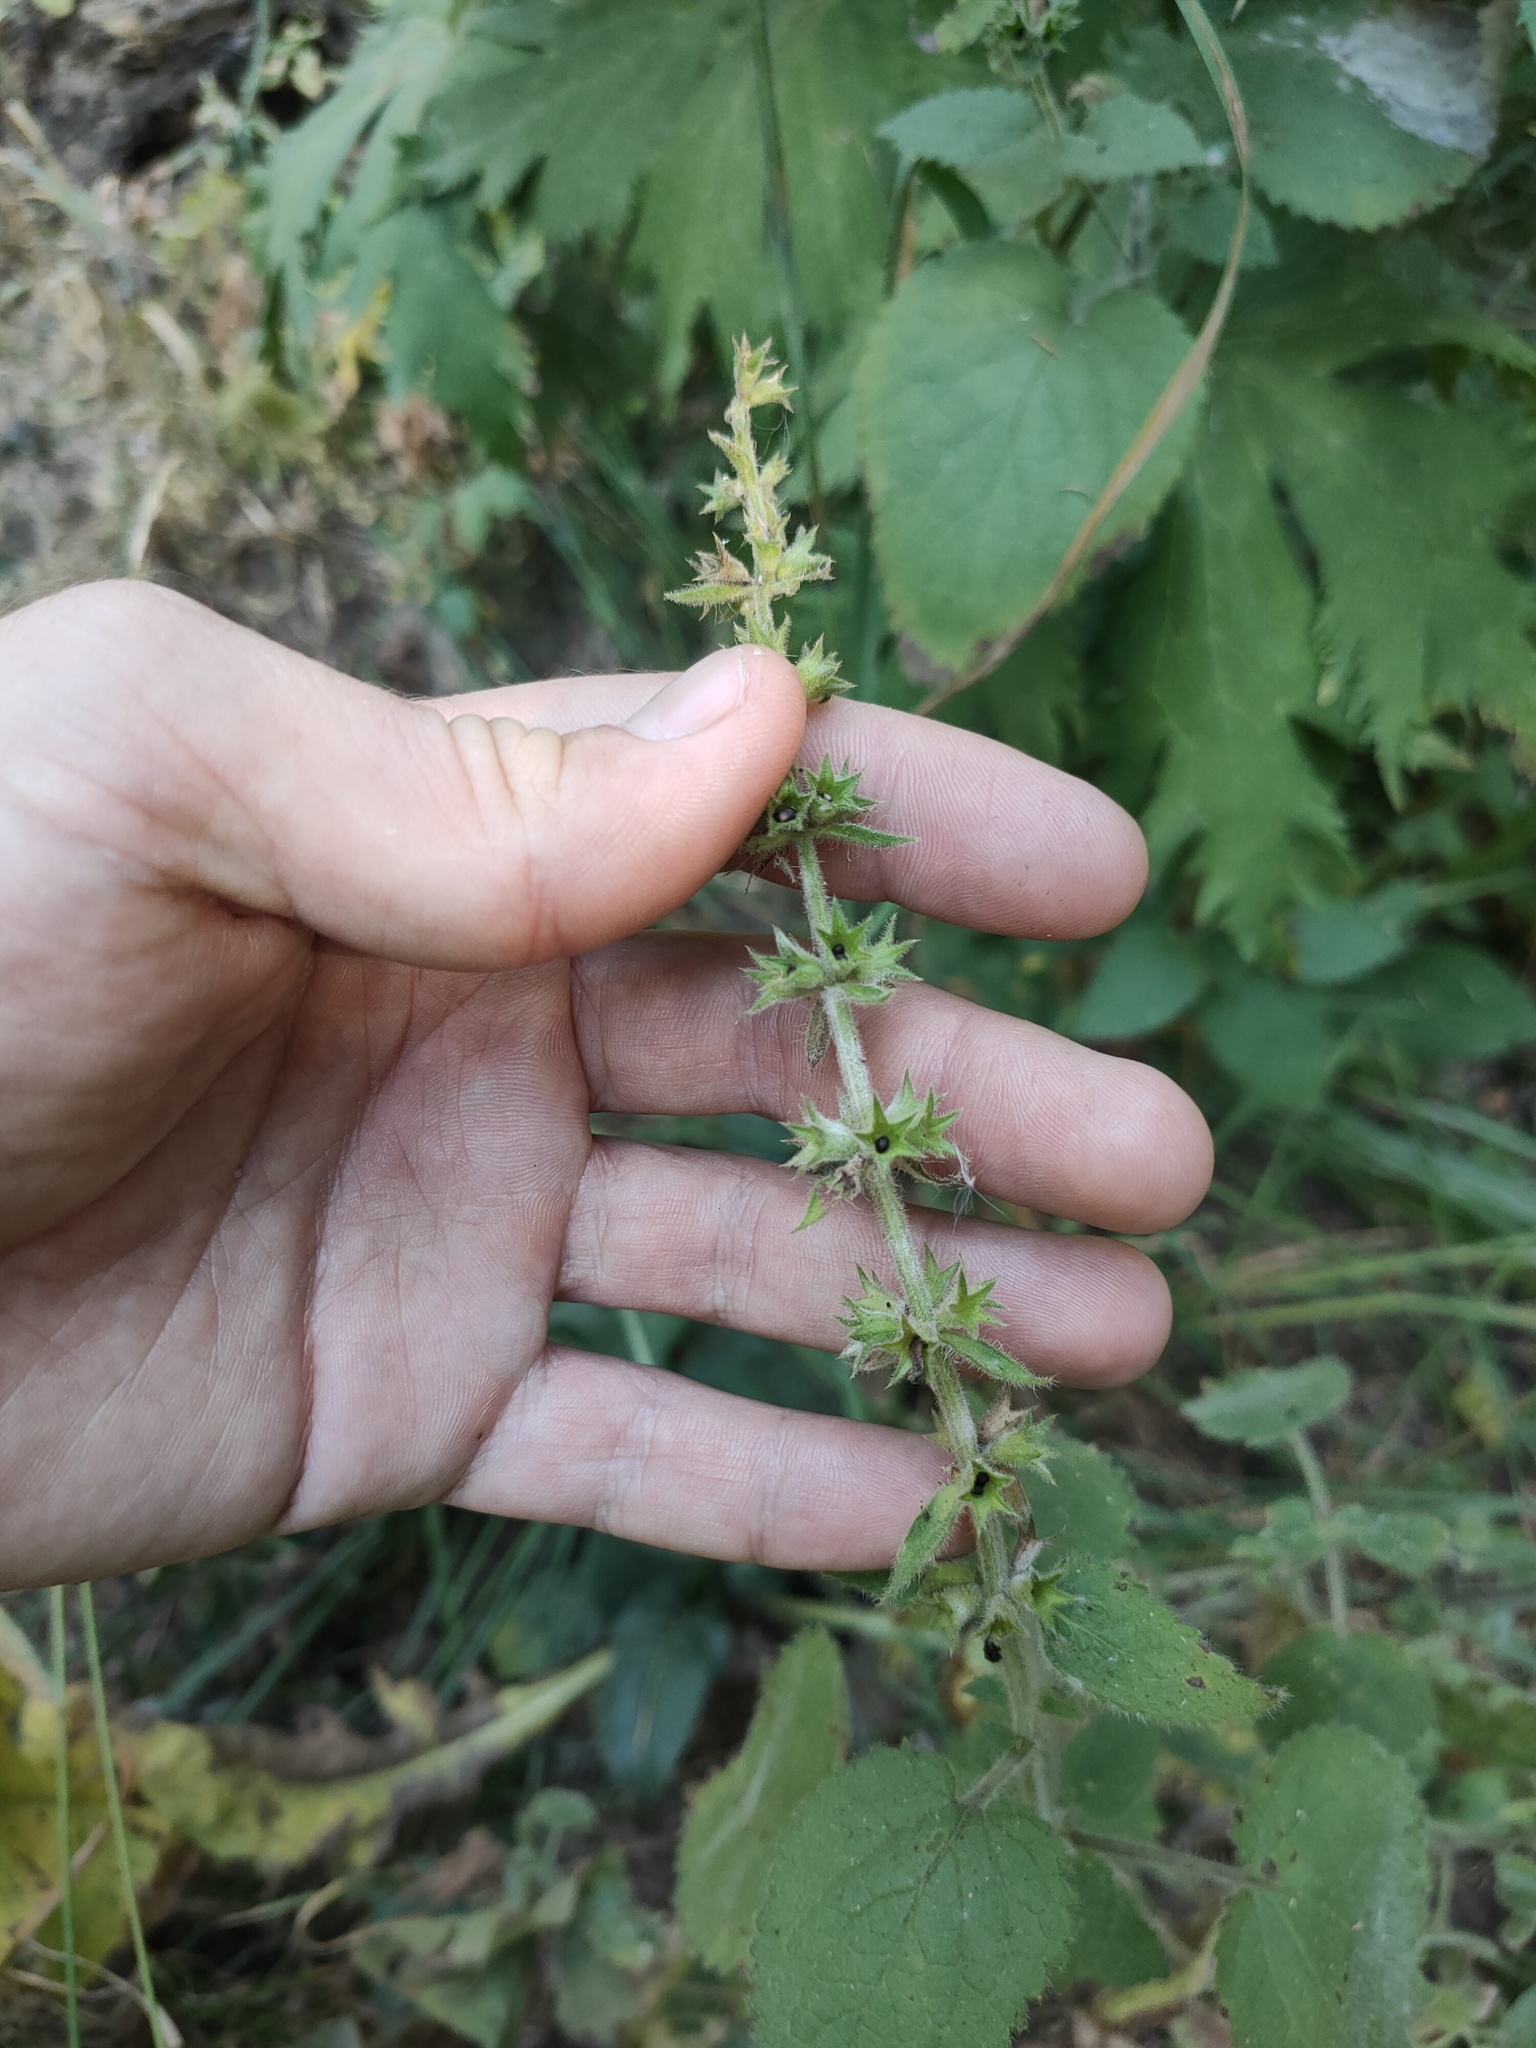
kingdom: Plantae
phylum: Tracheophyta
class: Magnoliopsida
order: Lamiales
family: Lamiaceae
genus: Stachys
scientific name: Stachys sylvatica
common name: Hedge woundwort
